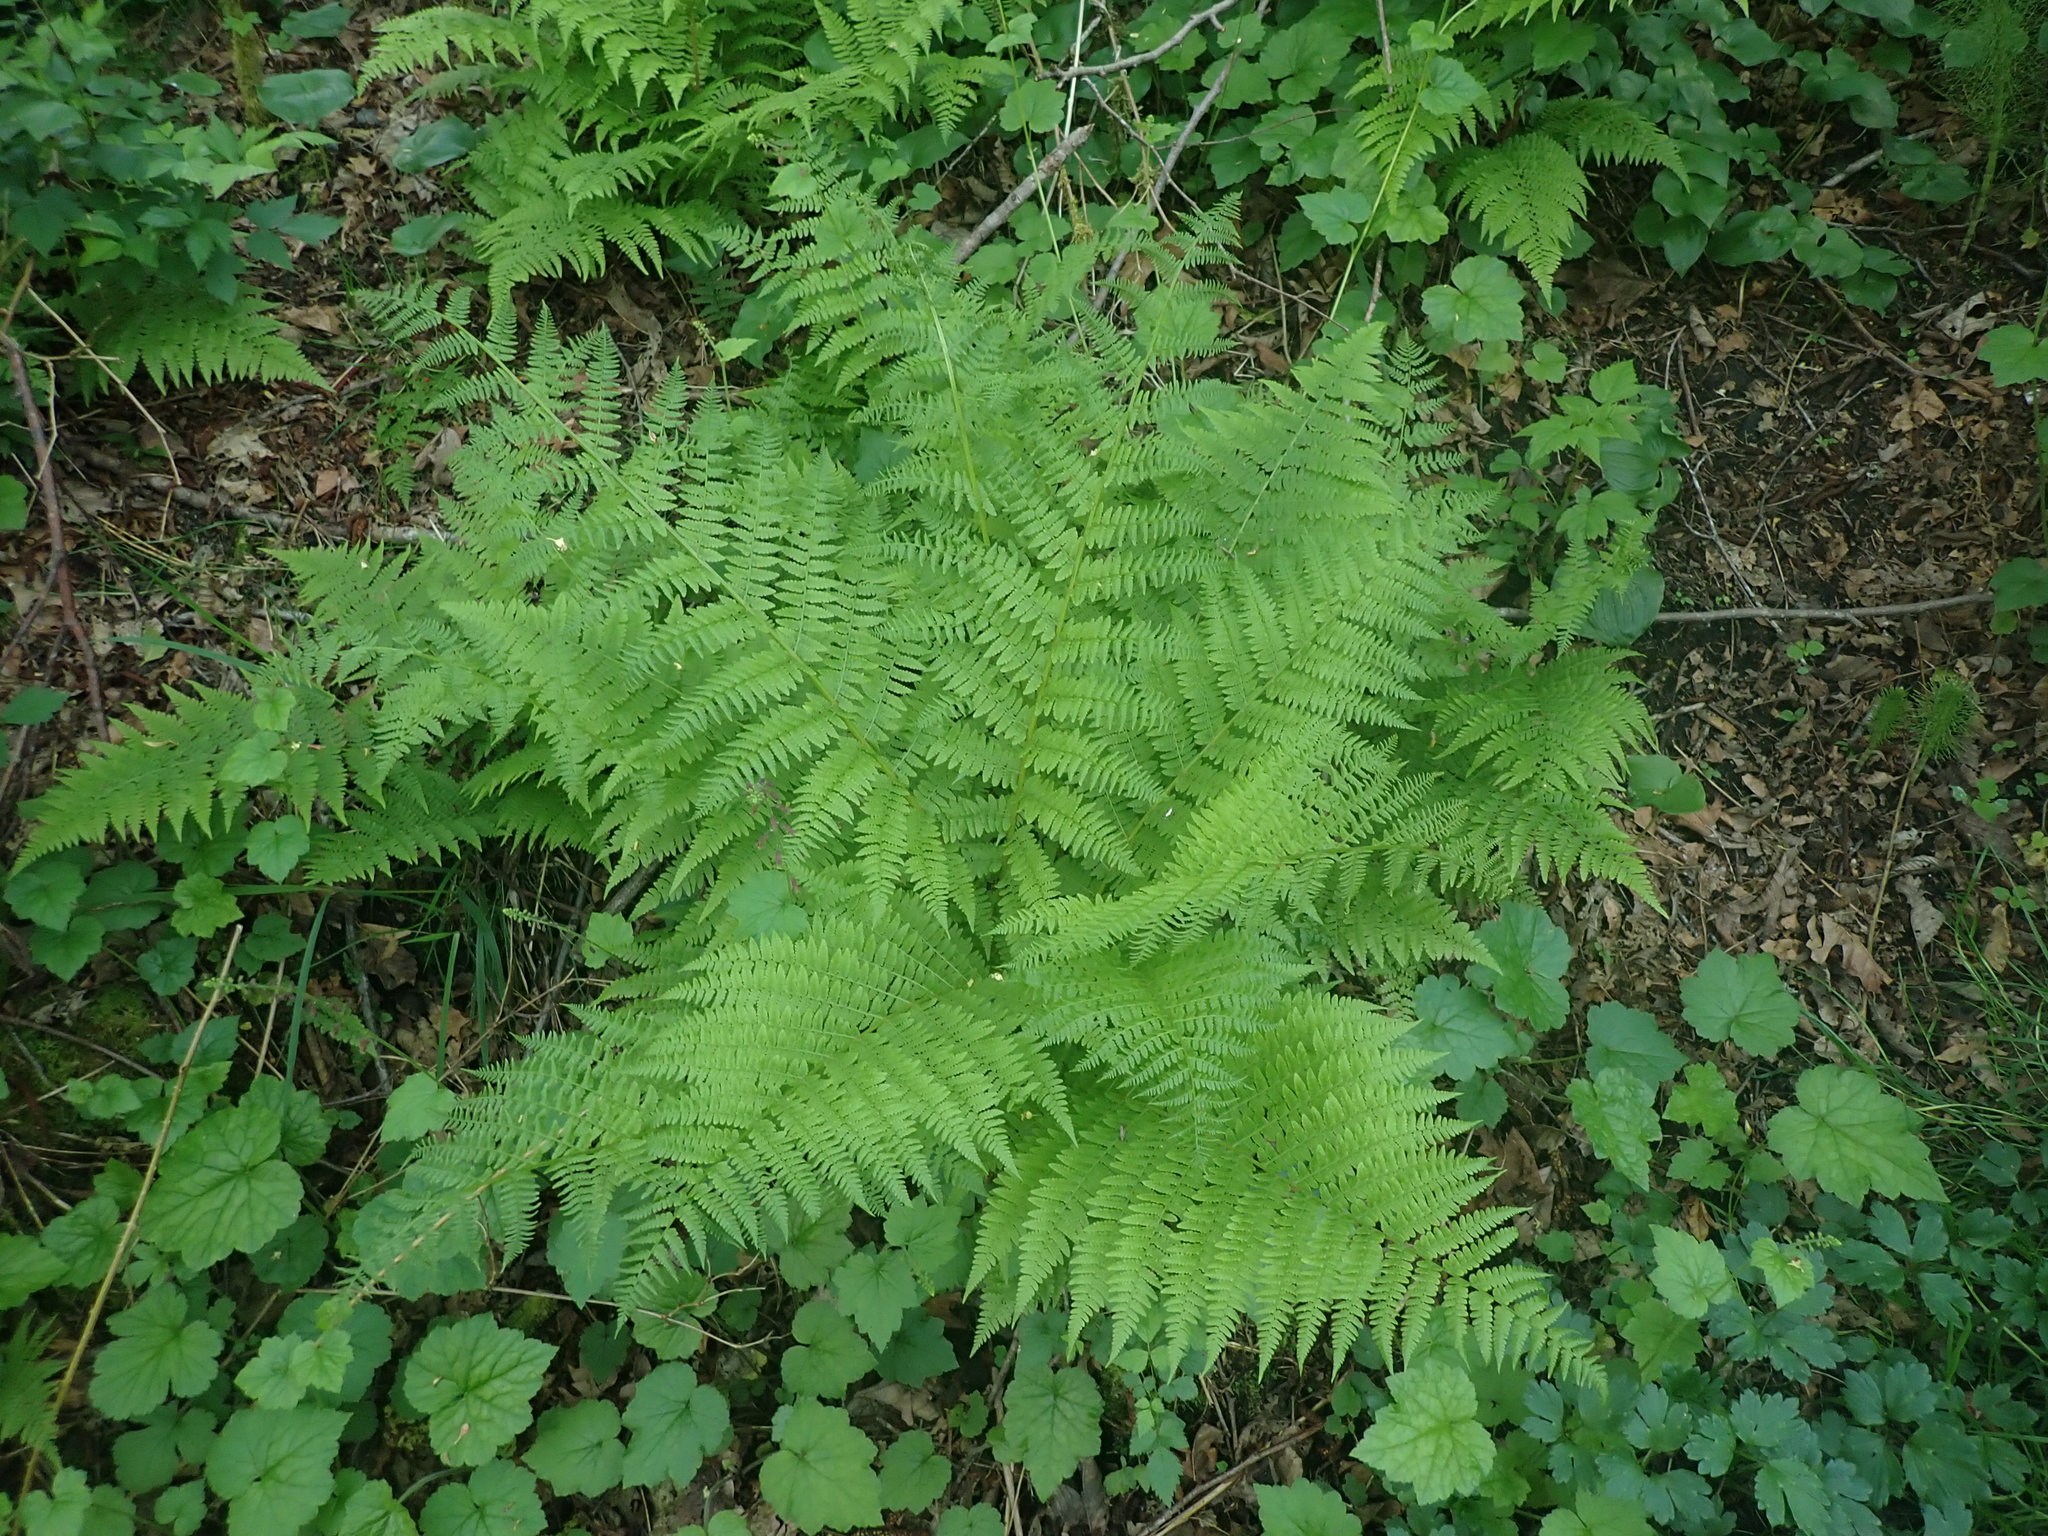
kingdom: Plantae
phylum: Tracheophyta
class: Polypodiopsida
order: Polypodiales
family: Athyriaceae
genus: Athyrium
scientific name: Athyrium filix-femina
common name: Lady fern
